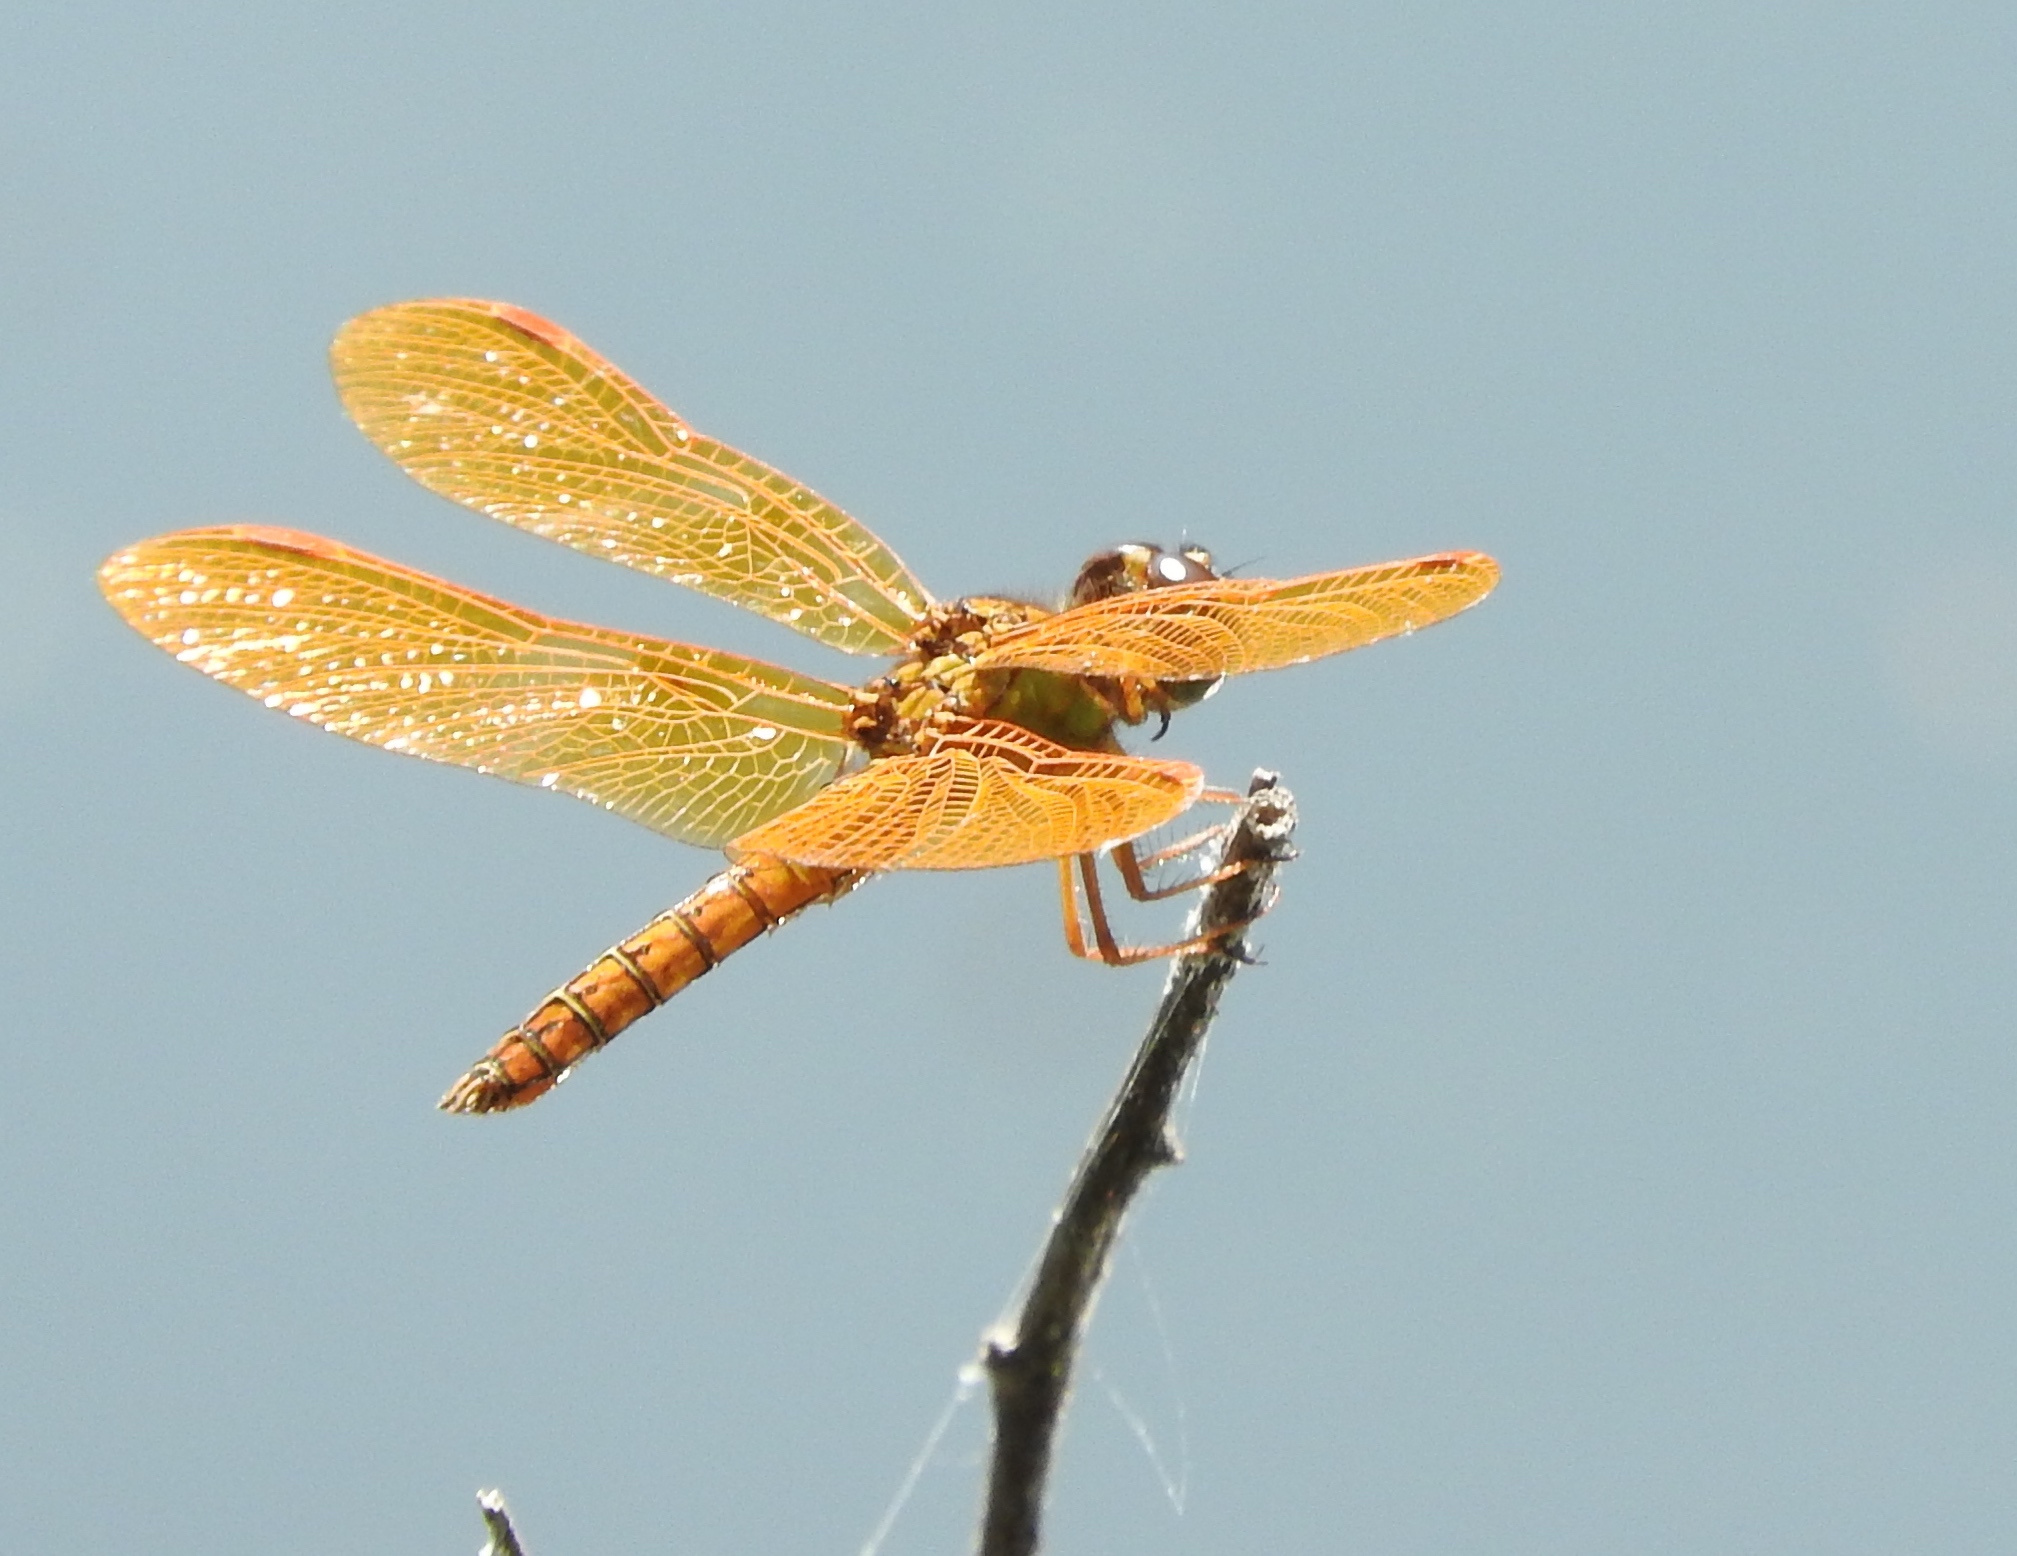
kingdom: Animalia
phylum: Arthropoda
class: Insecta
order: Odonata
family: Libellulidae
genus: Perithemis
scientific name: Perithemis intensa
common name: Mexican amberwing
